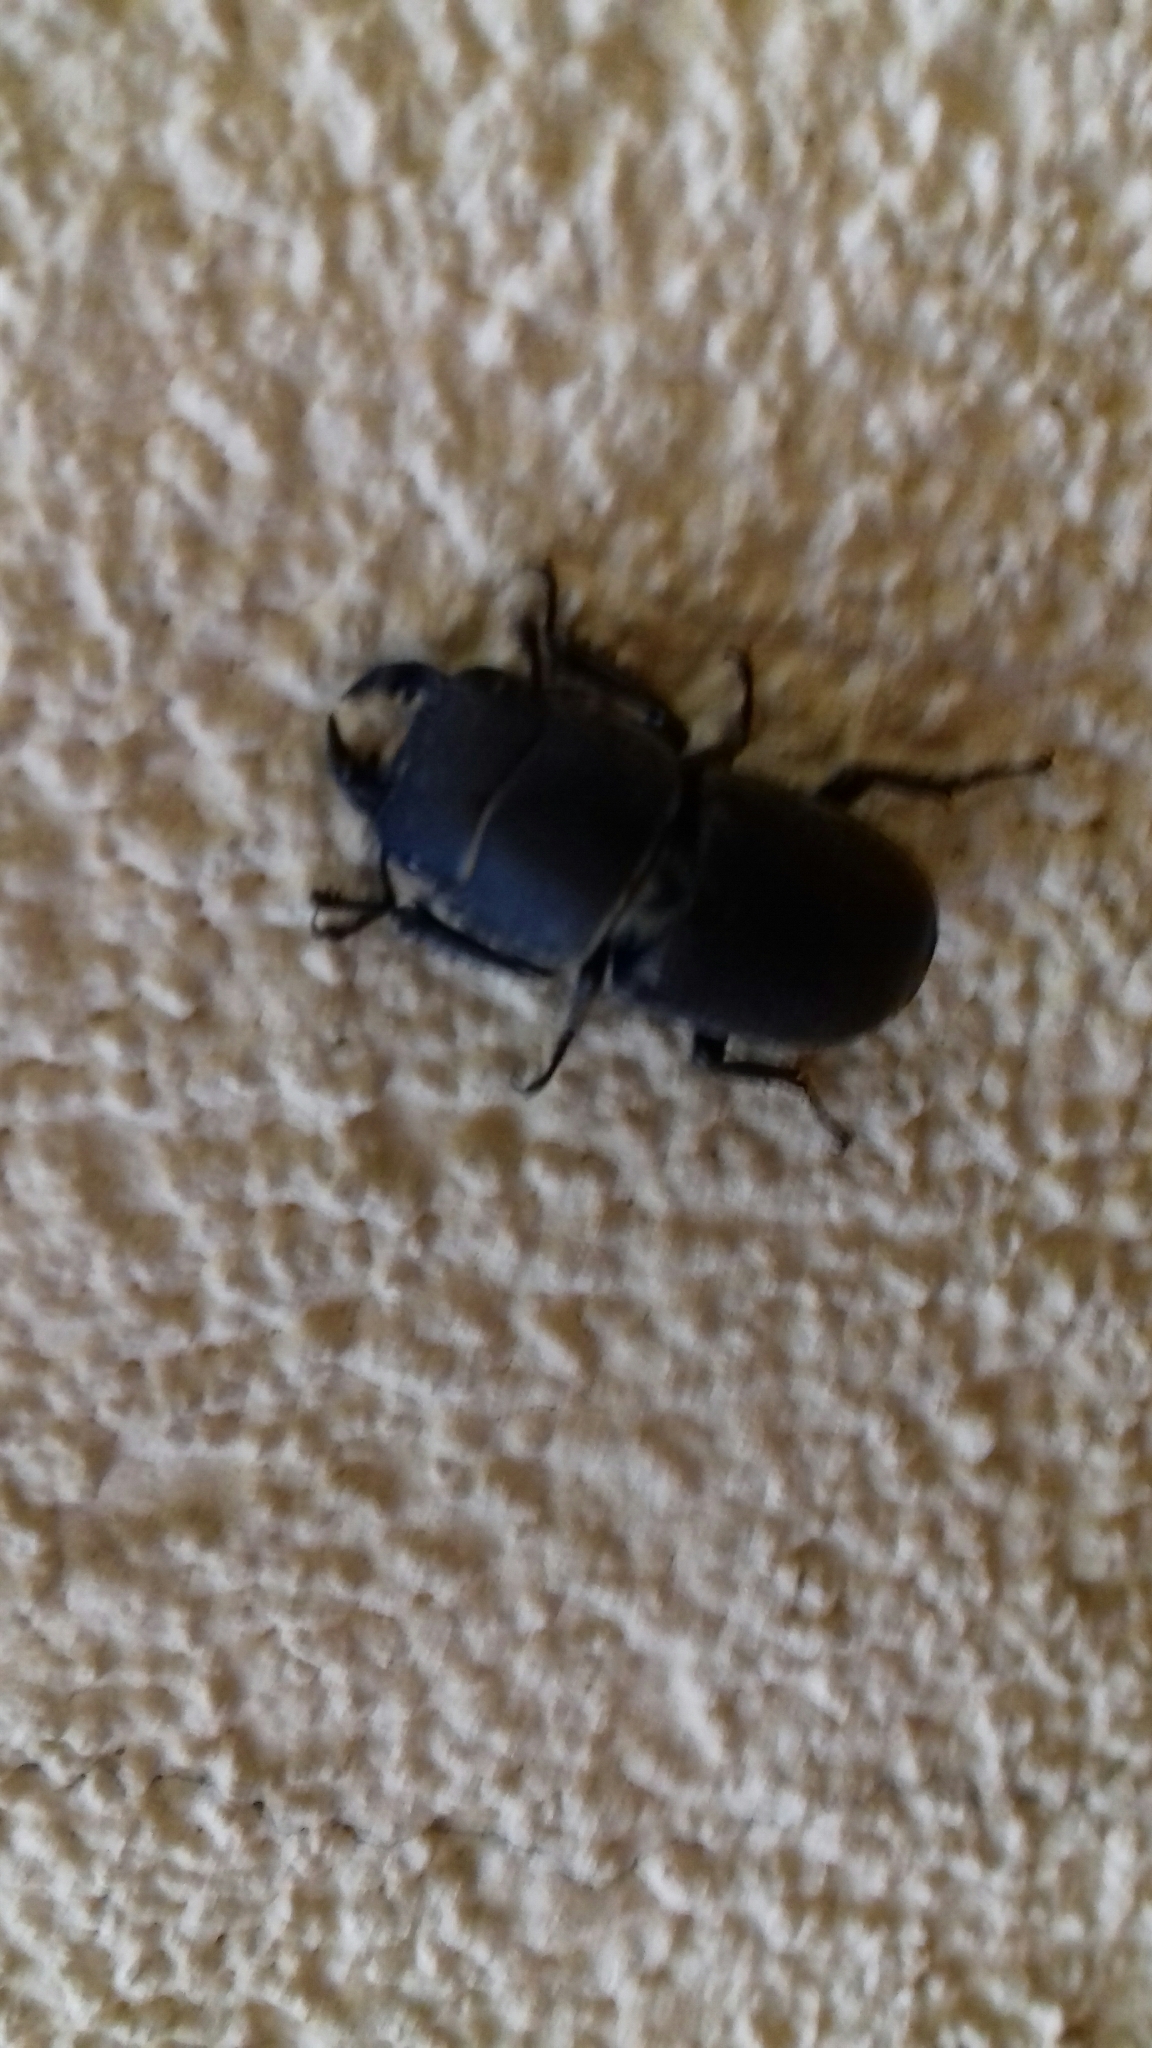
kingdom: Animalia
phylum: Arthropoda
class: Insecta
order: Coleoptera
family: Lucanidae
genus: Dorcus
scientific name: Dorcus parallelipipedus
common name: Lesser stag beetle
